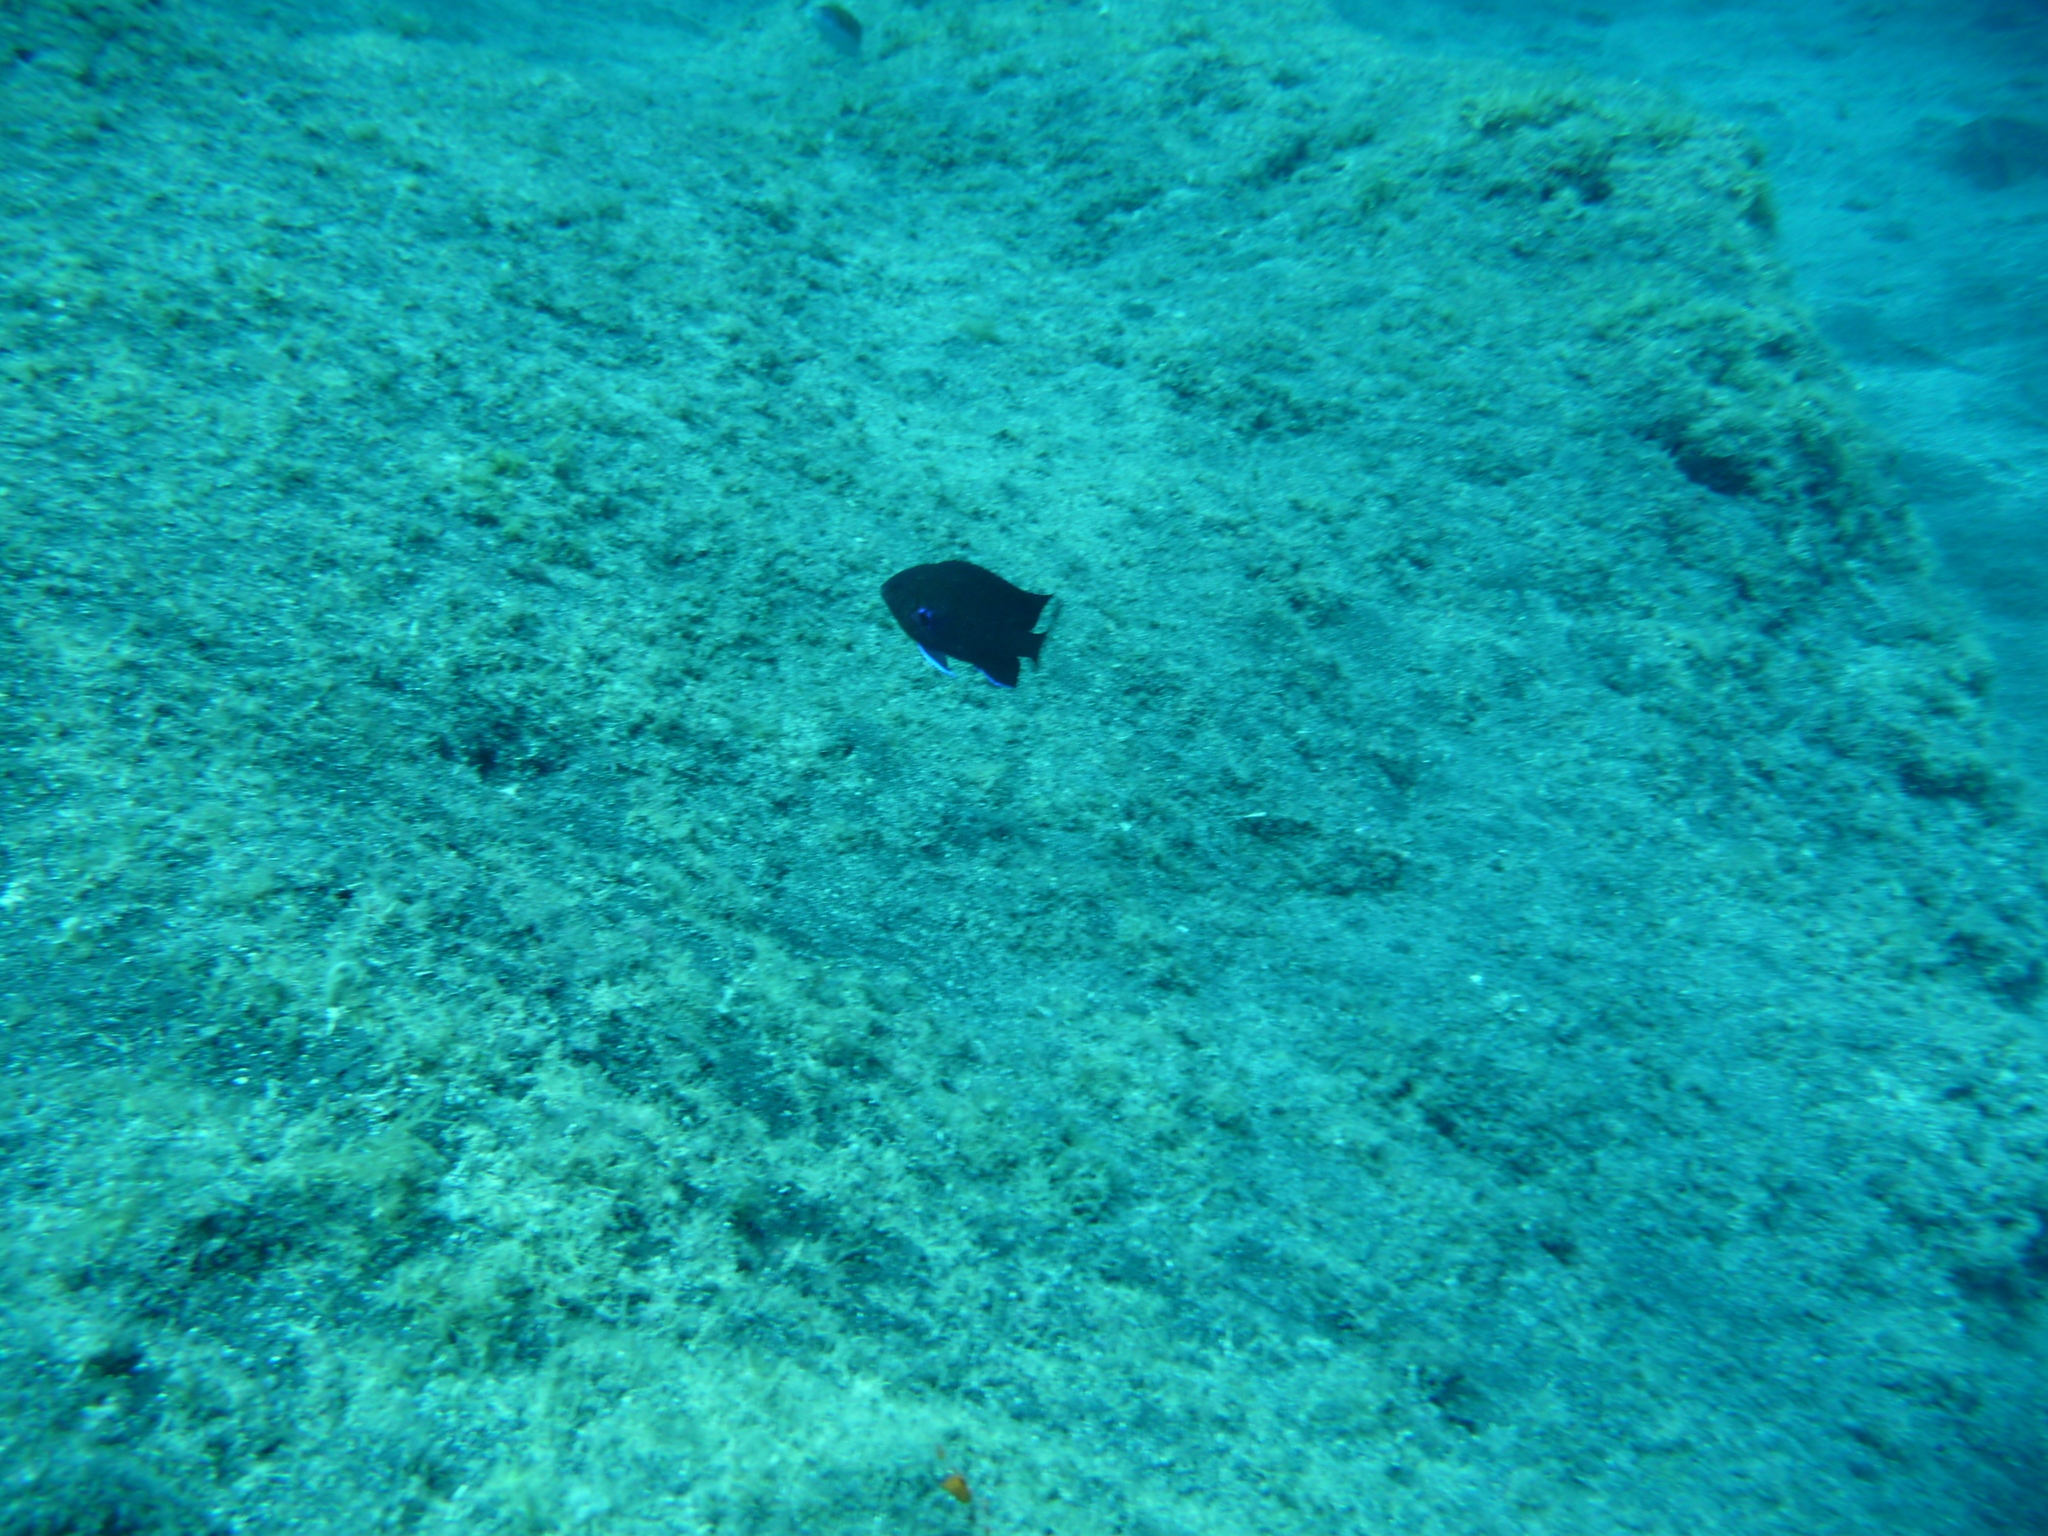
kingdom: Animalia
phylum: Chordata
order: Perciformes
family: Pomacentridae
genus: Similiparma
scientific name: Similiparma lurida
